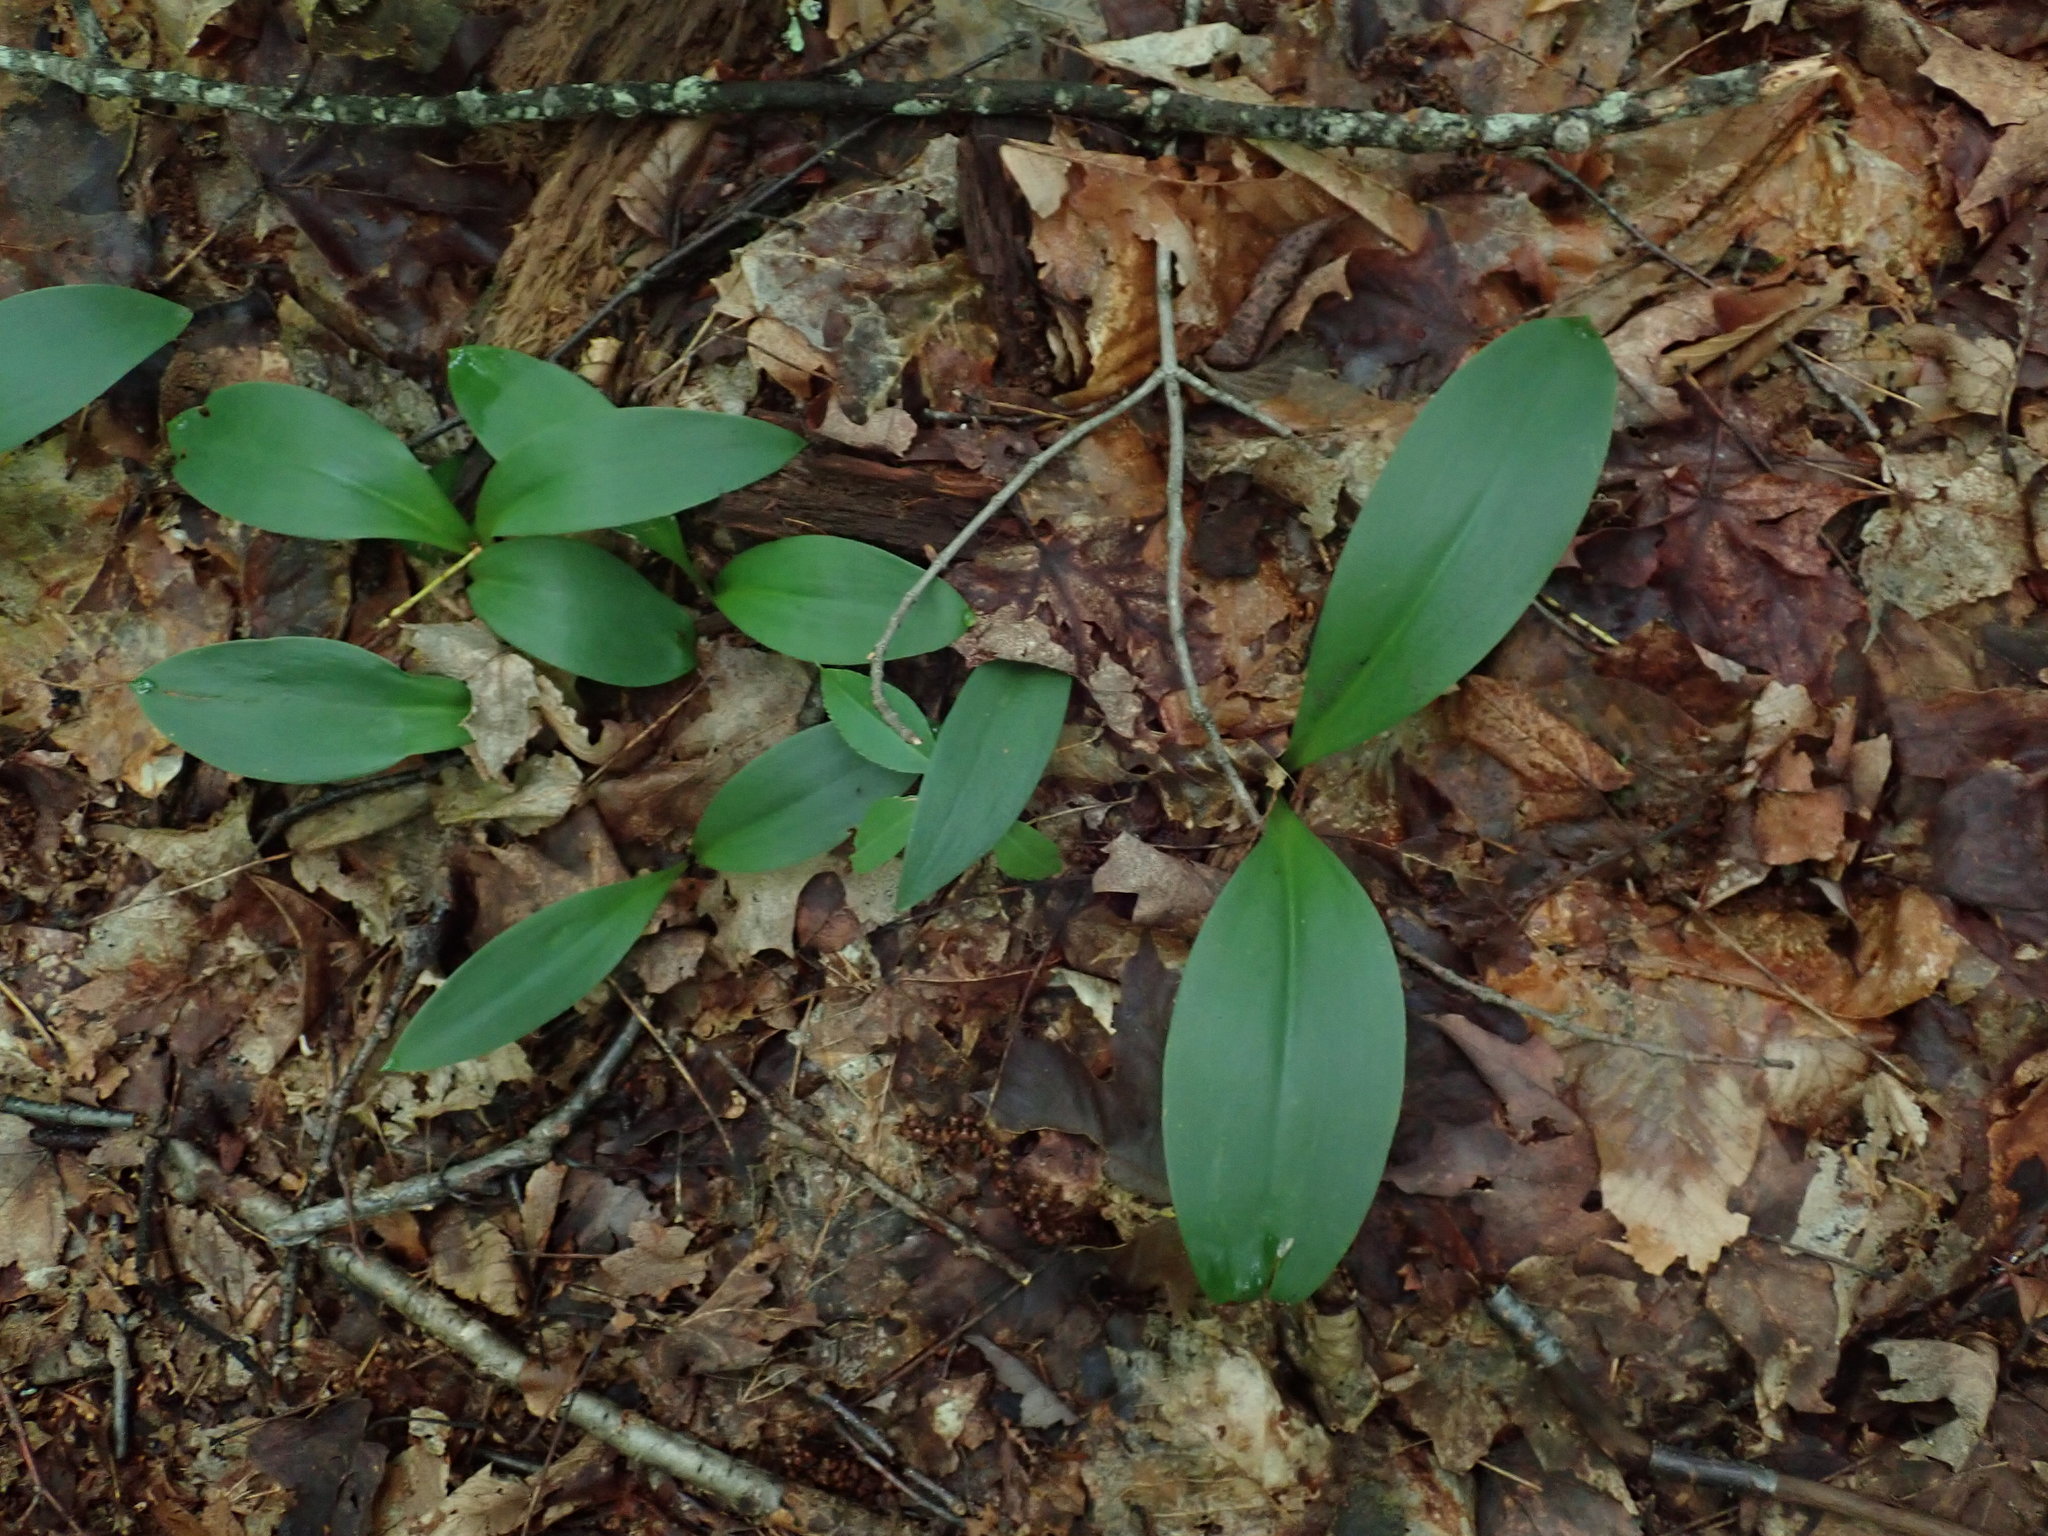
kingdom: Plantae
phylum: Tracheophyta
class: Liliopsida
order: Liliales
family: Liliaceae
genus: Clintonia
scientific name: Clintonia borealis
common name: Yellow clintonia
